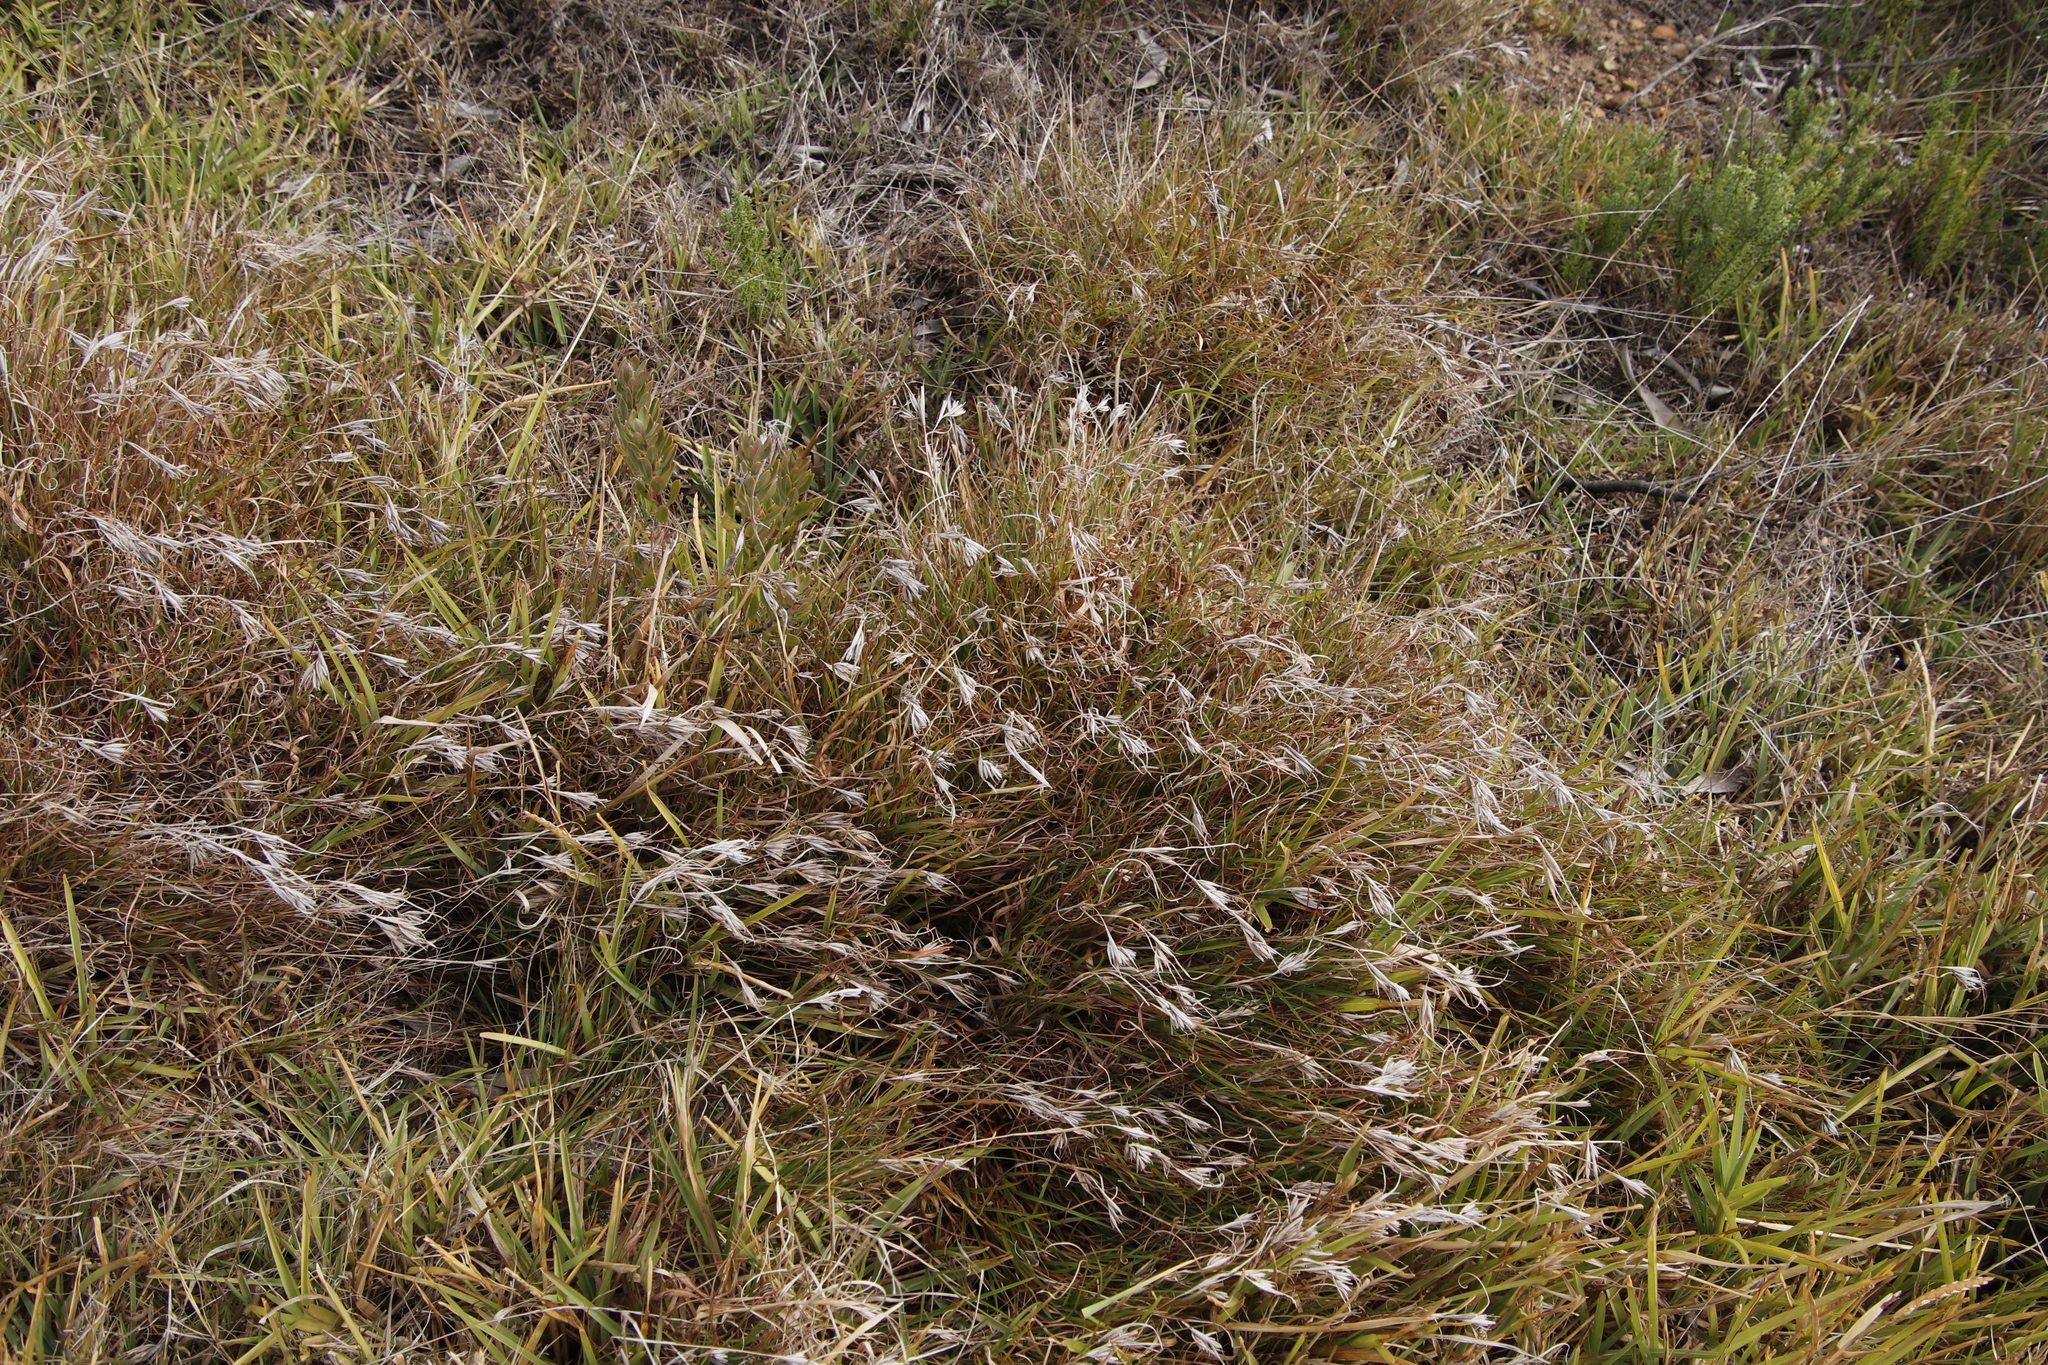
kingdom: Plantae
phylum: Tracheophyta
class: Liliopsida
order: Poales
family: Poaceae
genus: Themeda
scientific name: Themeda triandra
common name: Kangaroo grass
